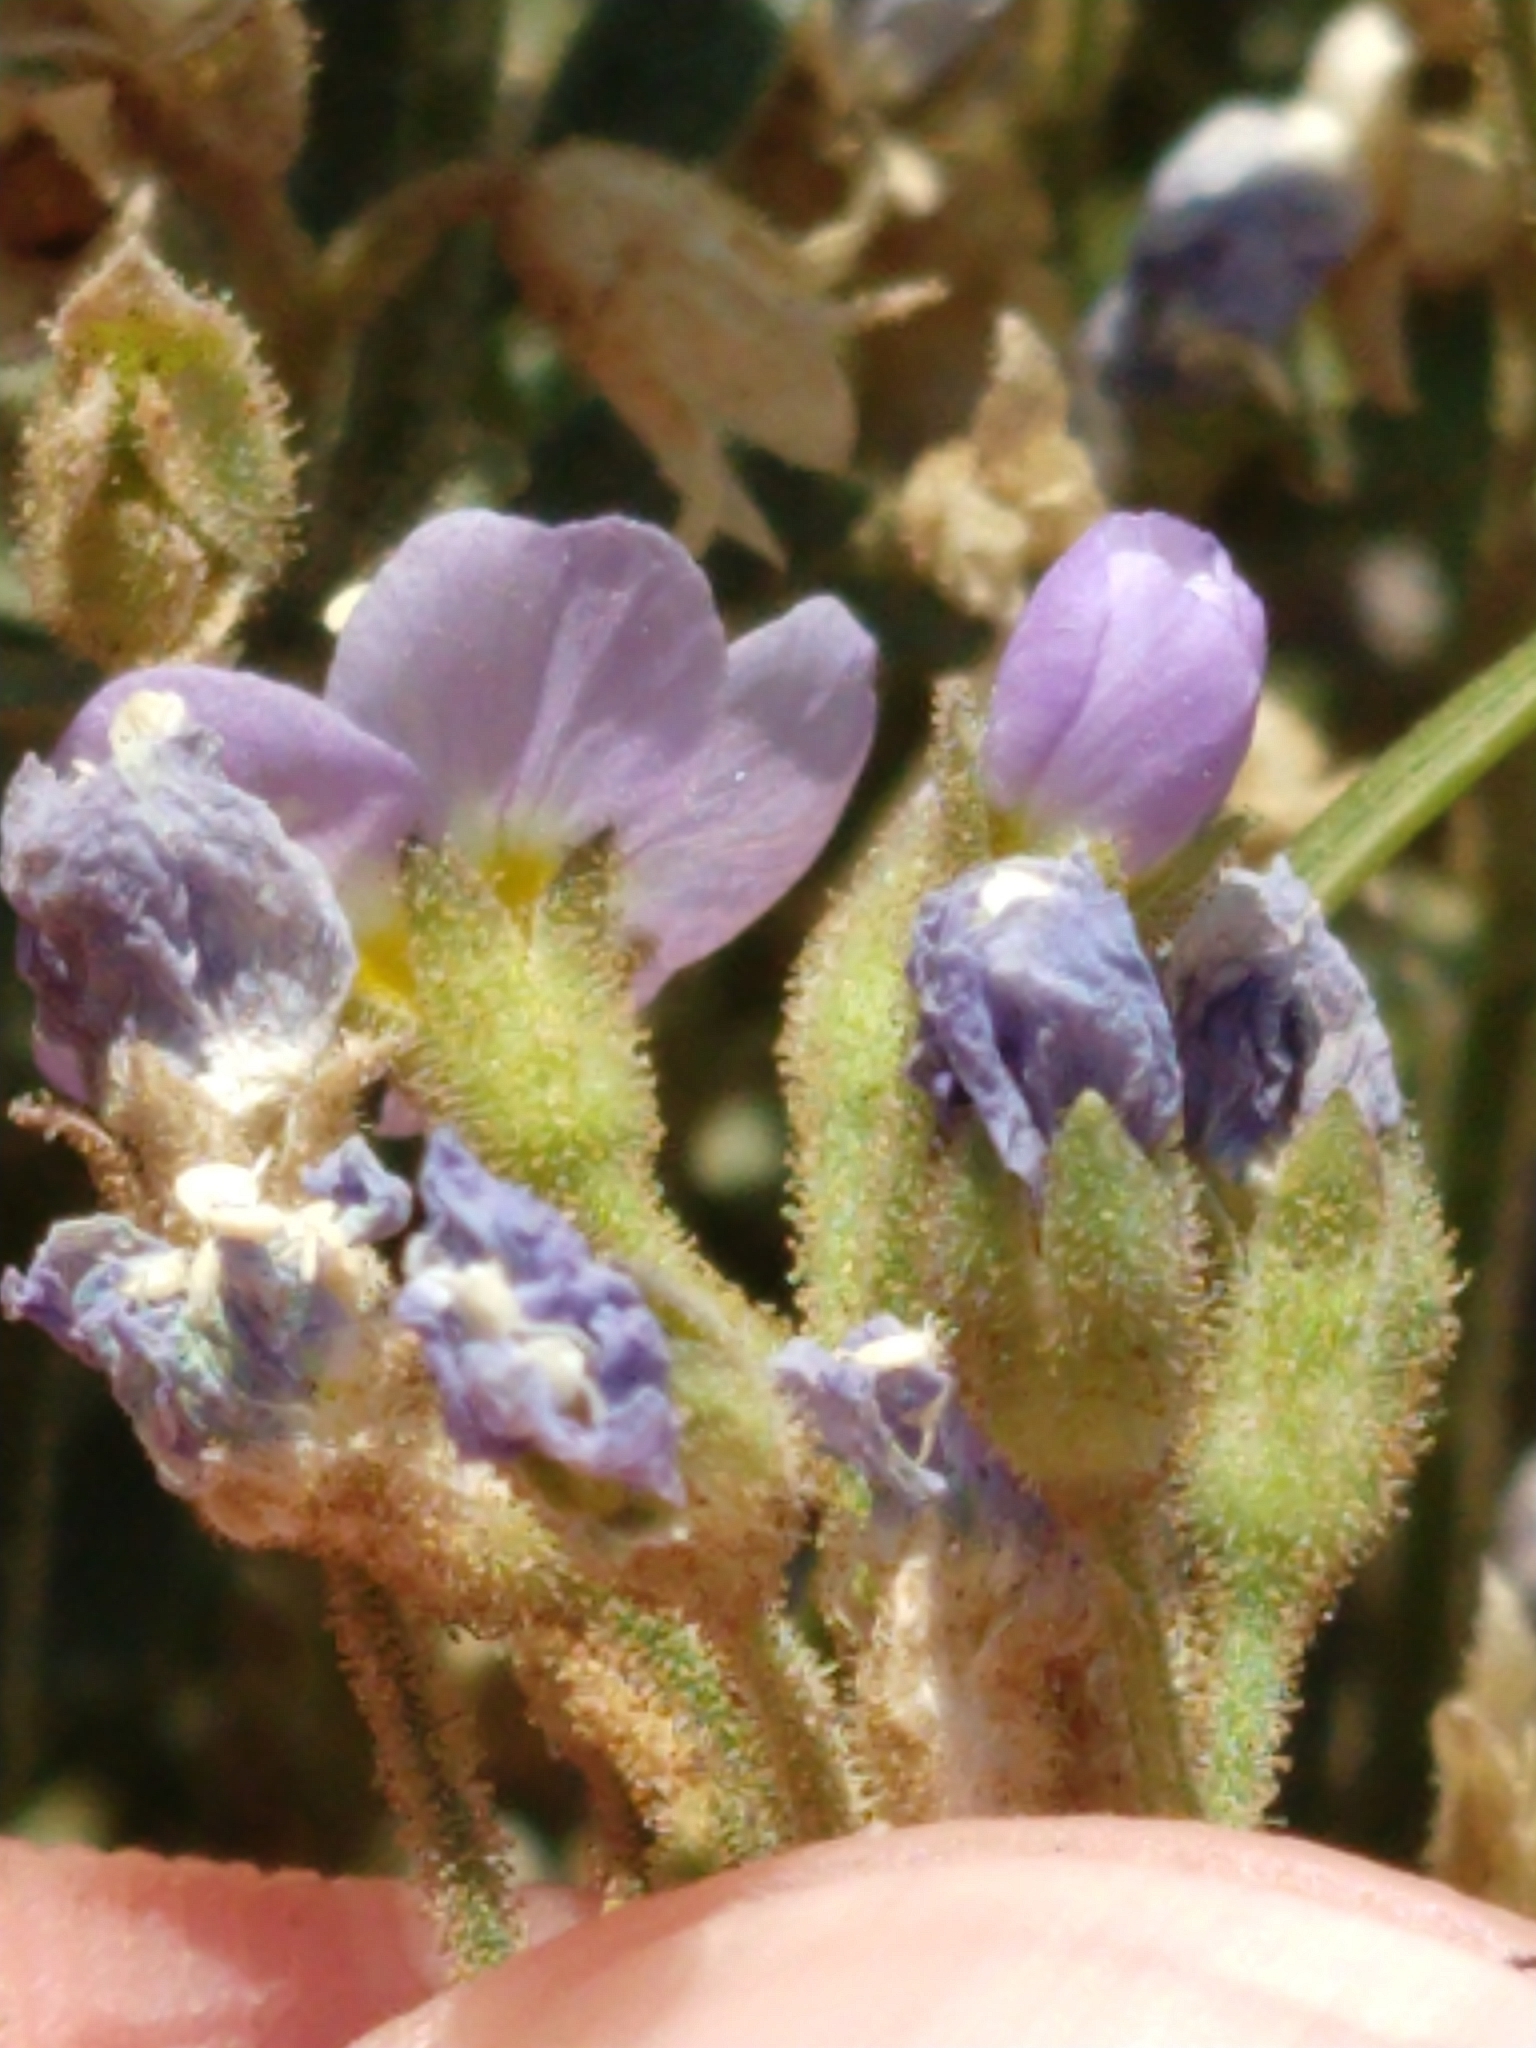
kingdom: Plantae
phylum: Tracheophyta
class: Magnoliopsida
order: Ericales
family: Polemoniaceae
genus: Polemonium
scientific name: Polemonium pulcherrimum
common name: Short jacob's-ladder
